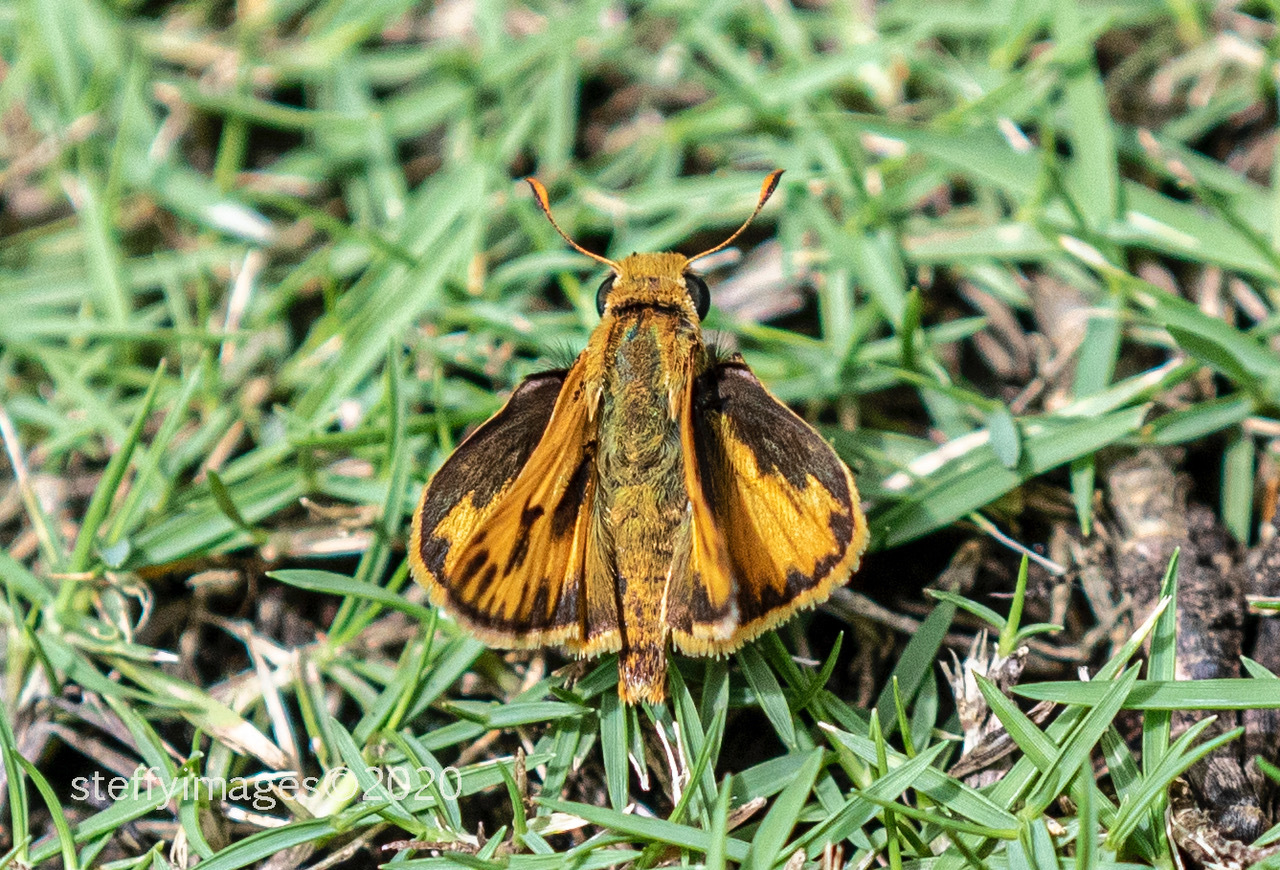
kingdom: Animalia
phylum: Arthropoda
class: Insecta
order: Lepidoptera
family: Hesperiidae
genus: Hylephila
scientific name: Hylephila phyleus
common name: Fiery skipper
